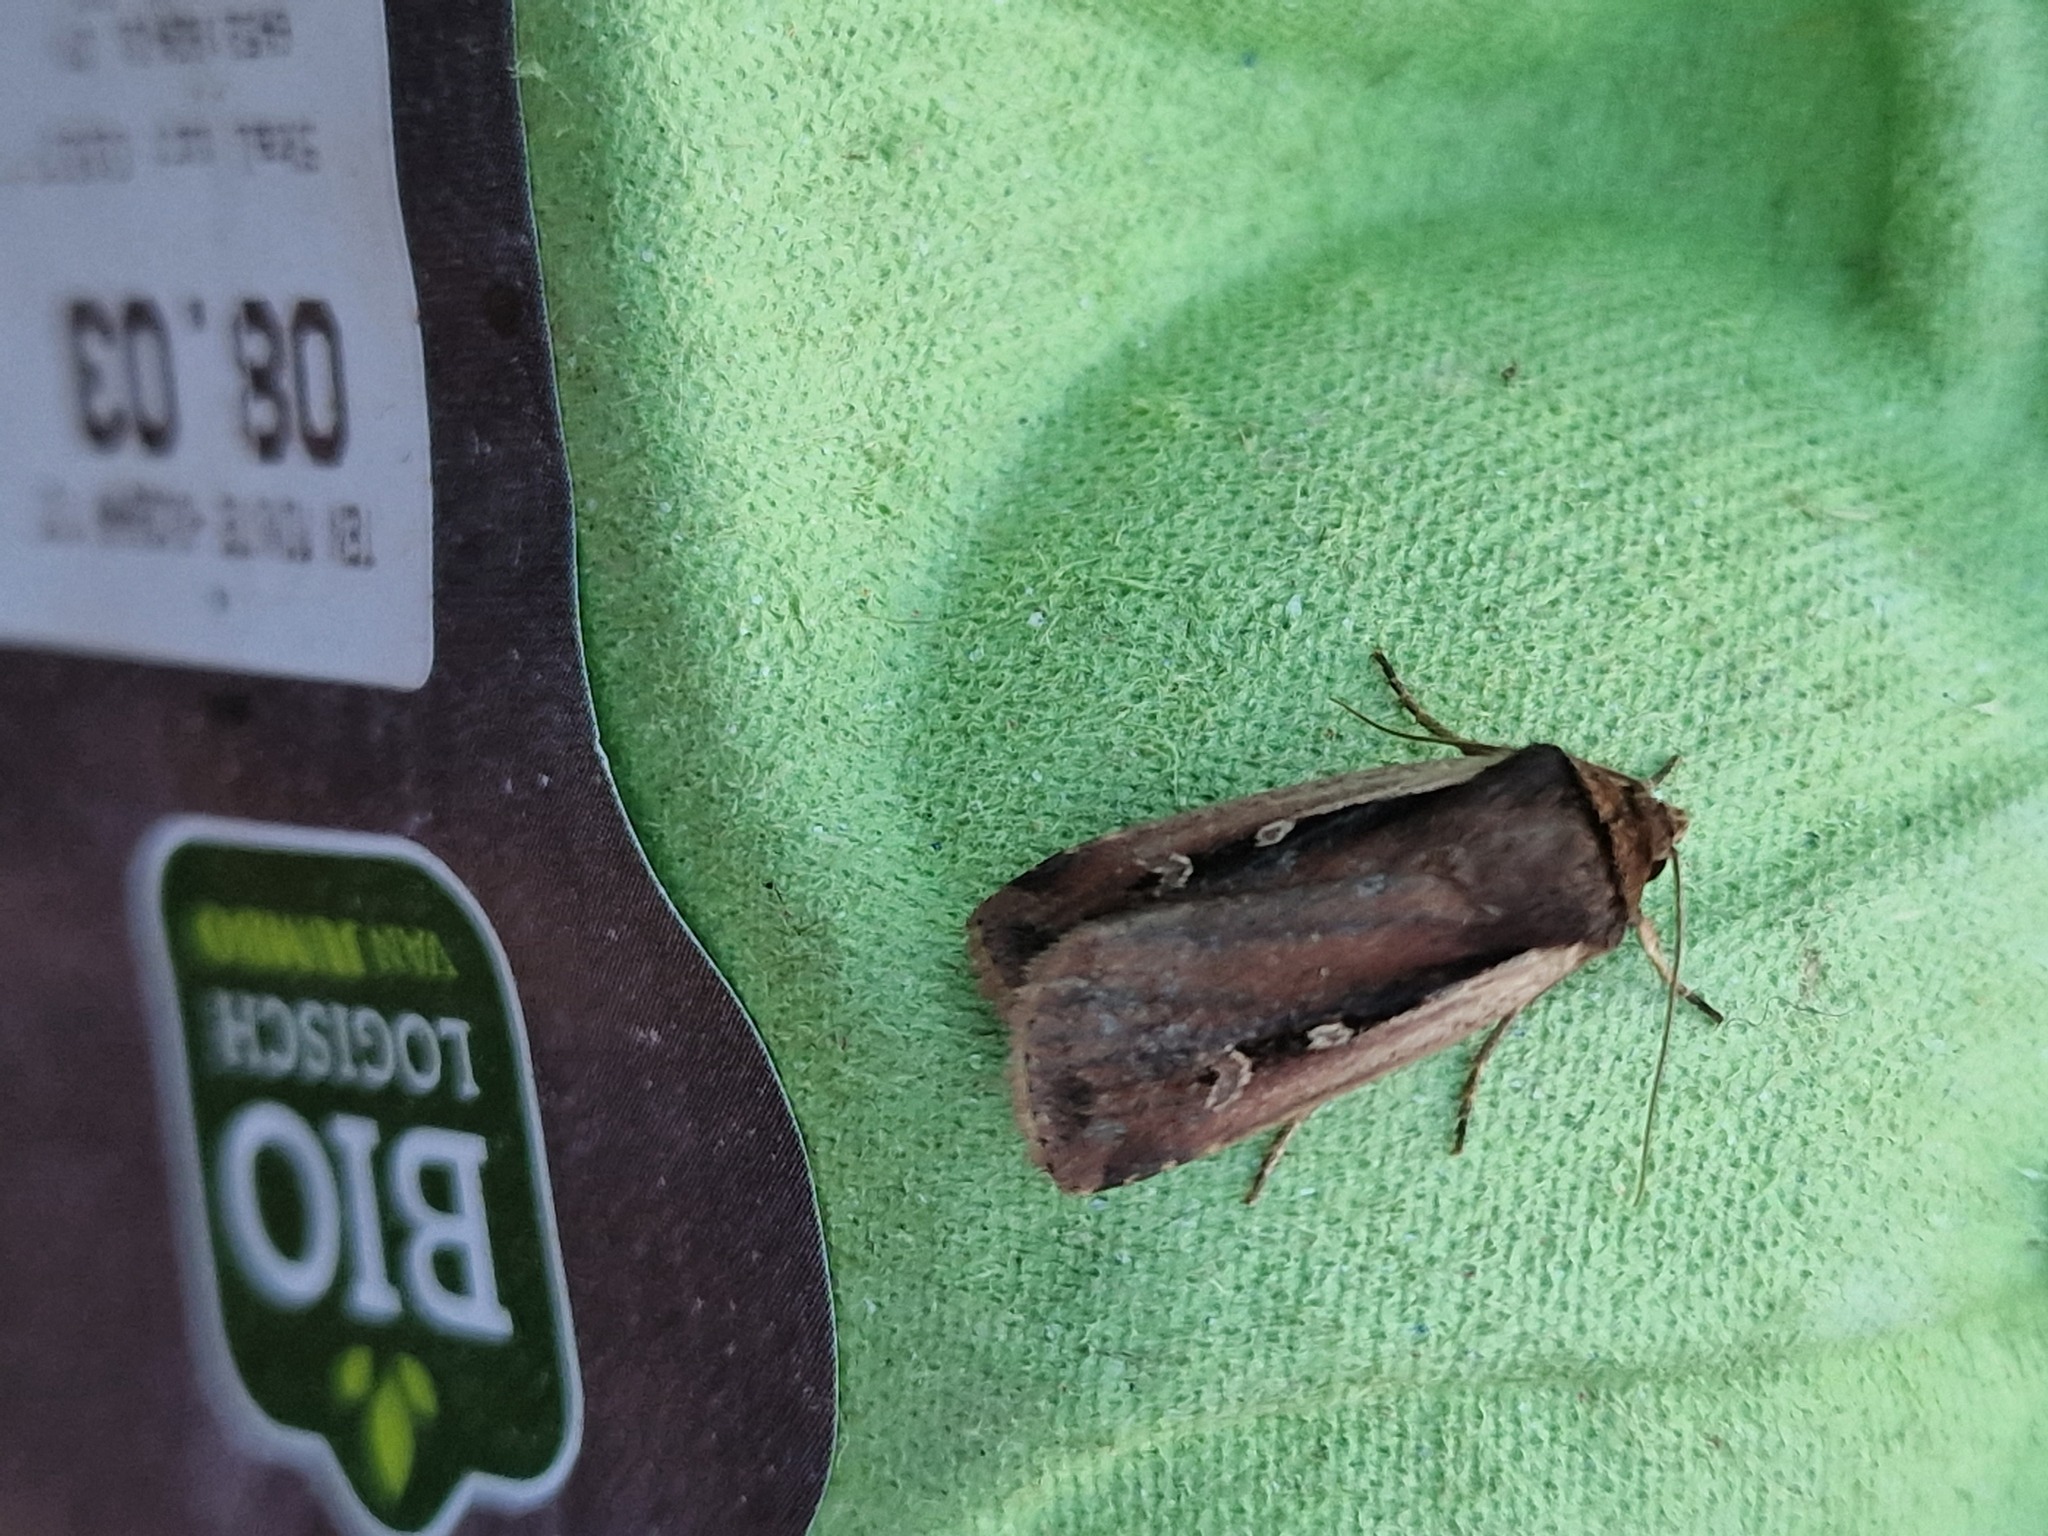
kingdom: Animalia
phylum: Arthropoda
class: Insecta
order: Lepidoptera
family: Noctuidae
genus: Ochropleura
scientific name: Ochropleura plecta
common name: Flame shoulder
